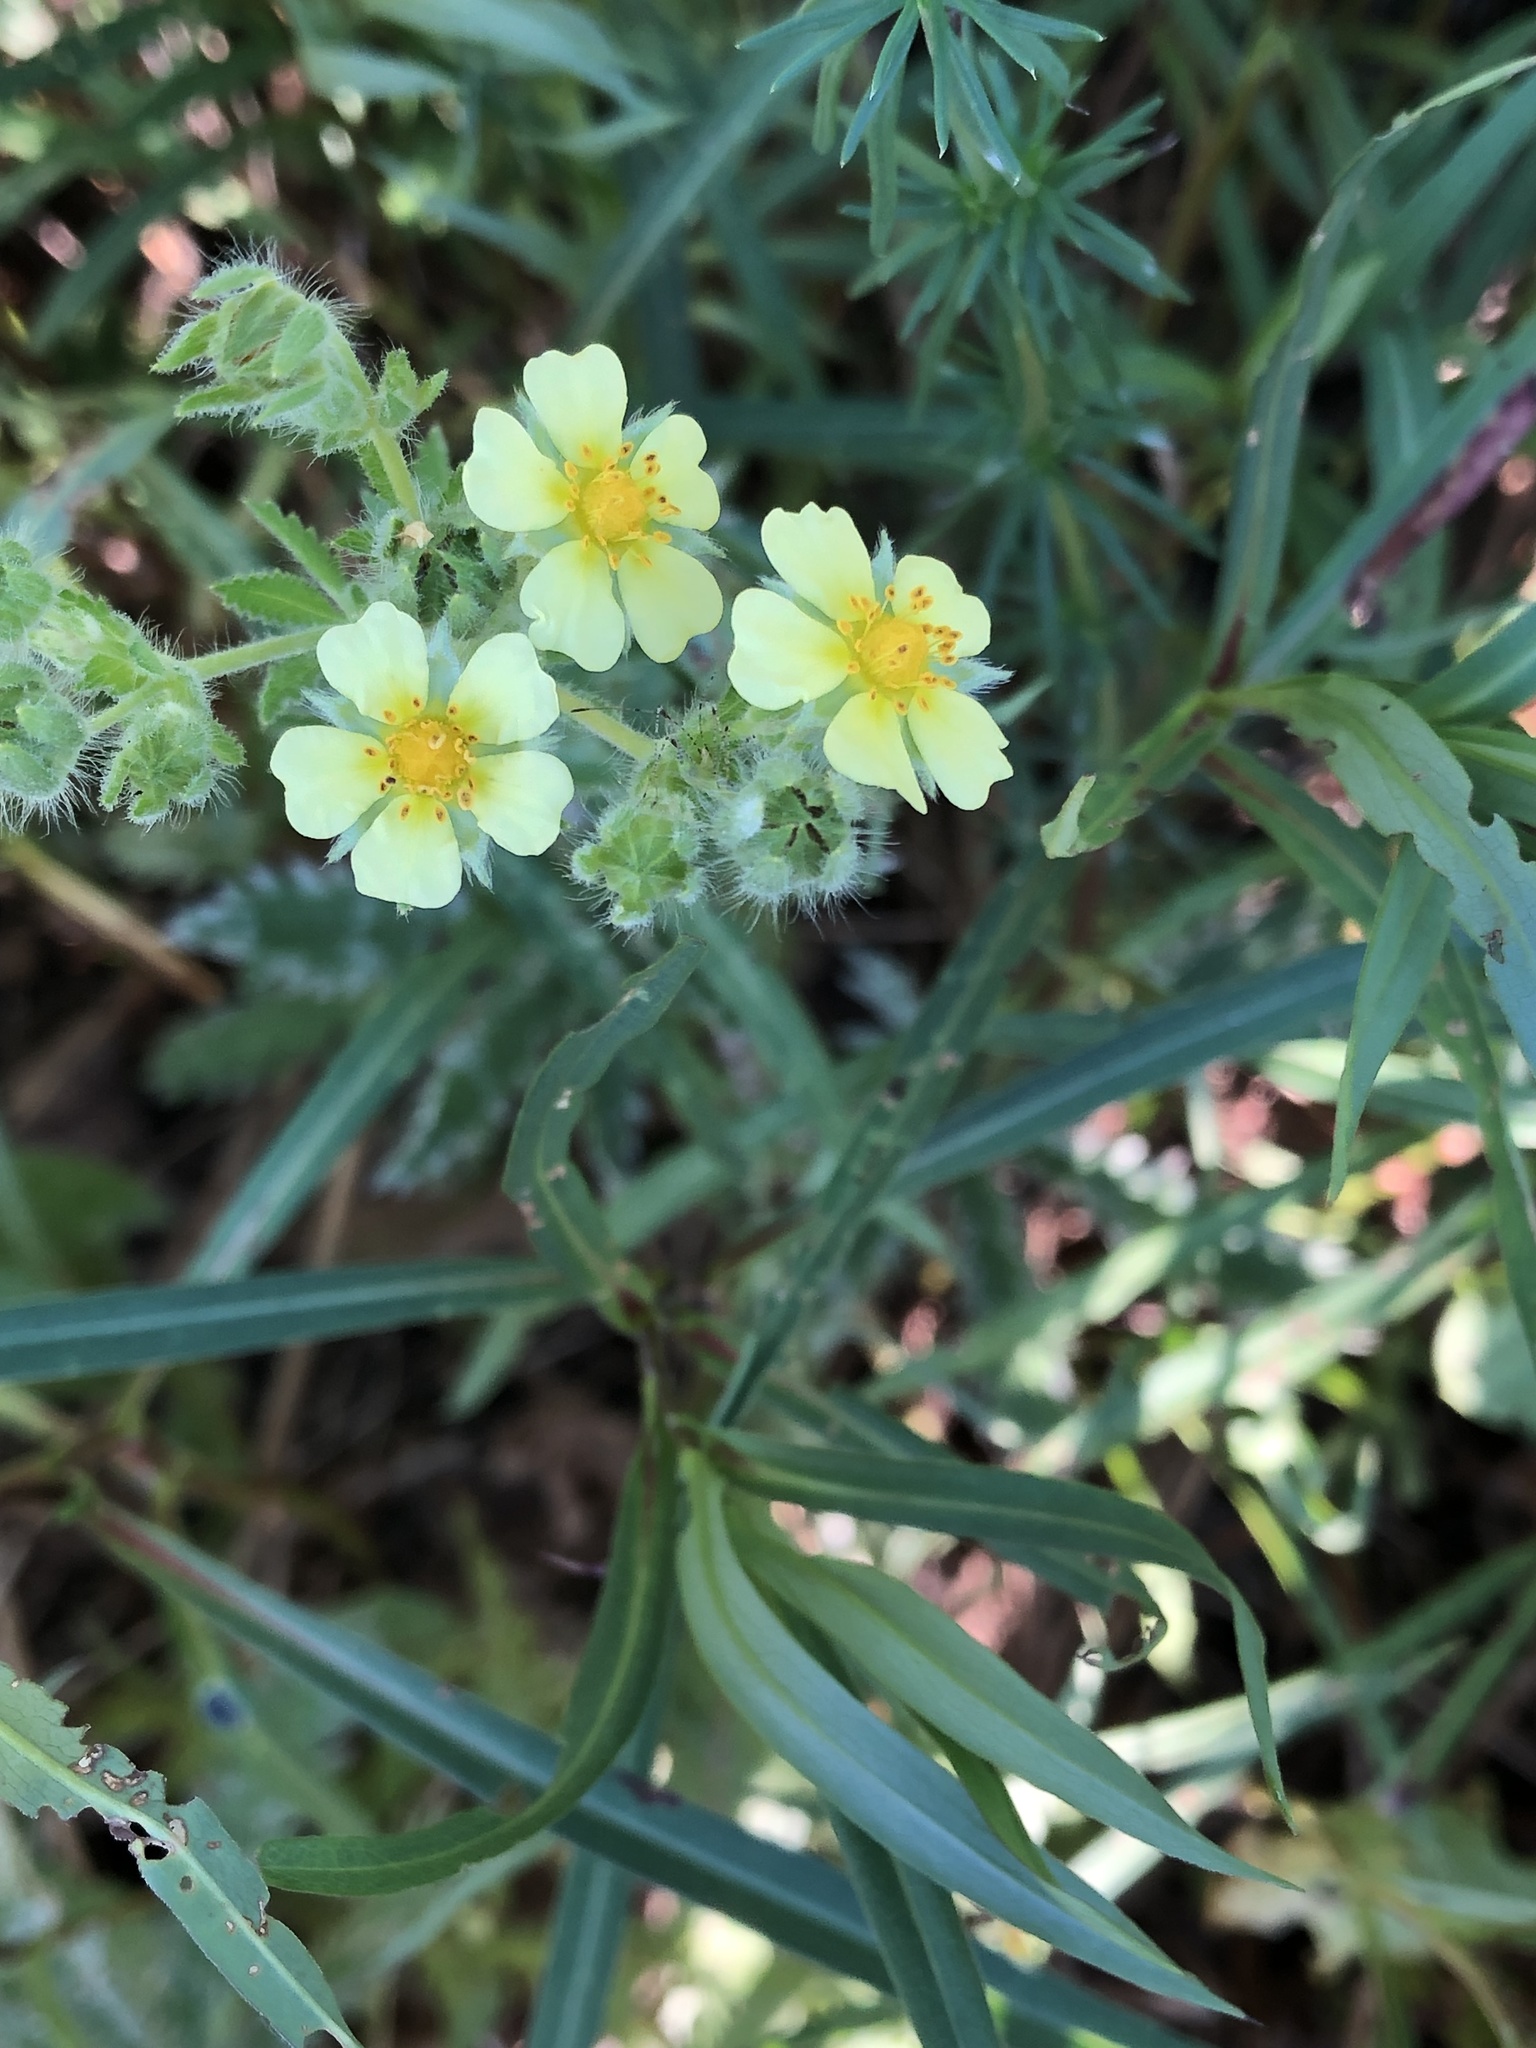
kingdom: Plantae
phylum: Tracheophyta
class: Magnoliopsida
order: Rosales
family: Rosaceae
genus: Potentilla
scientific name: Potentilla recta
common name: Sulphur cinquefoil
